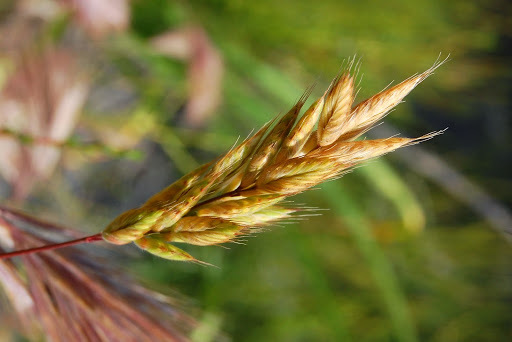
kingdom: Plantae
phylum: Tracheophyta
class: Liliopsida
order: Poales
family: Poaceae
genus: Bromus
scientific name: Bromus hordeaceus
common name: Soft brome
